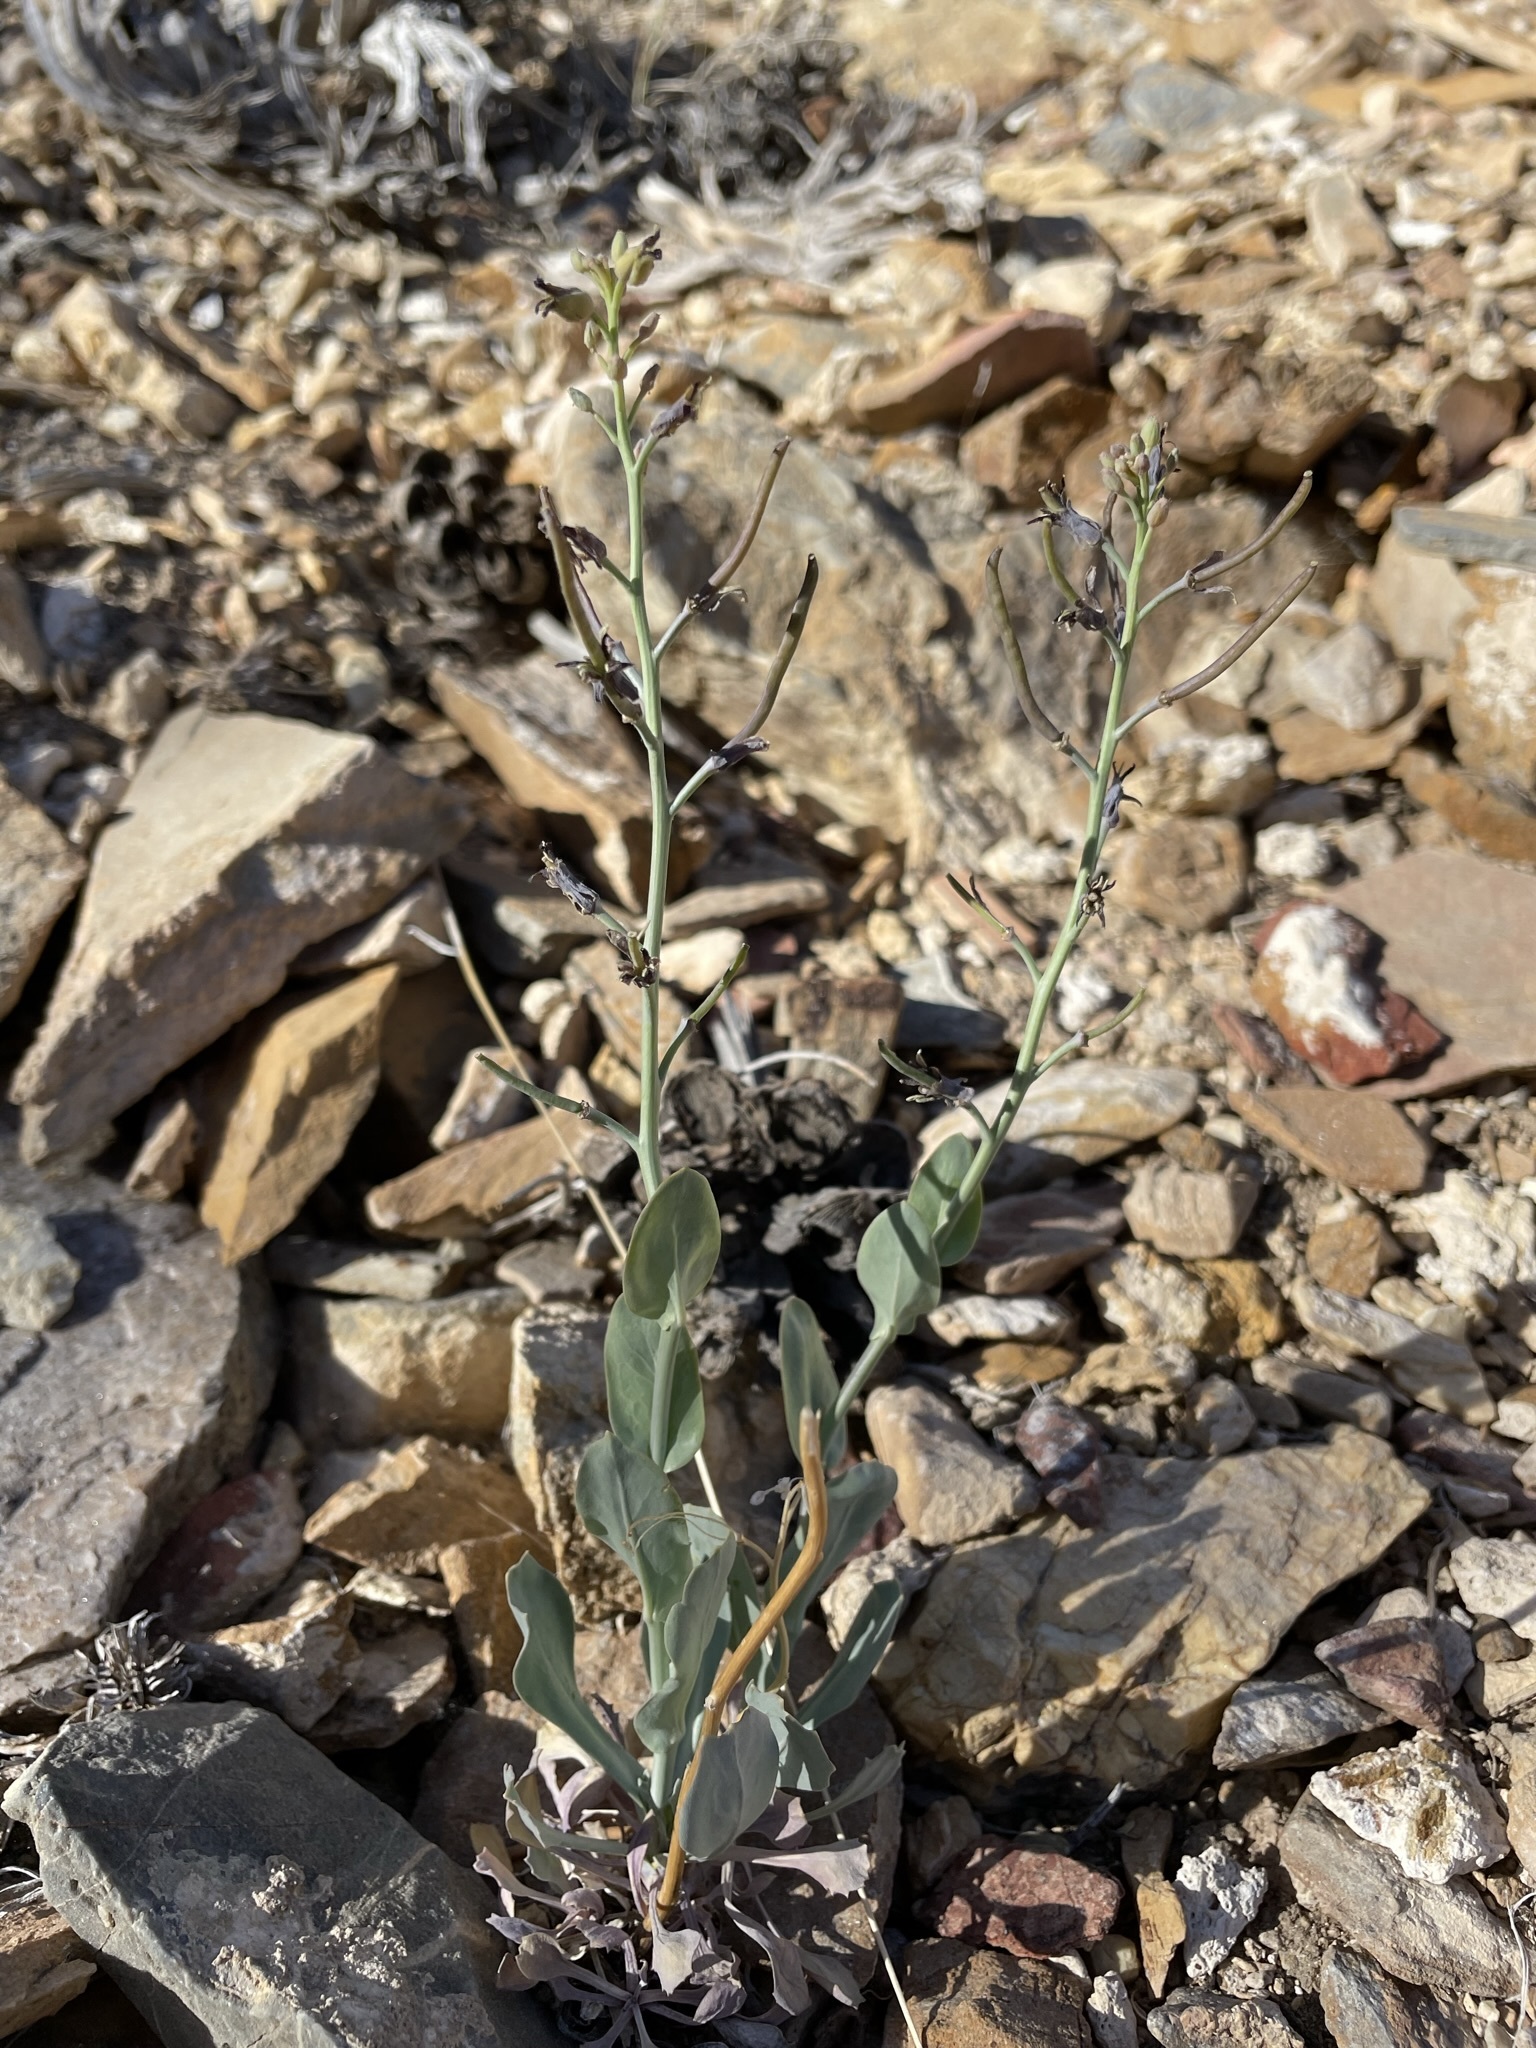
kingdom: Plantae
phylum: Tracheophyta
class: Magnoliopsida
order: Brassicales
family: Brassicaceae
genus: Streptanthus
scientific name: Streptanthus cordatus
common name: Heart-leaf jewel-flower
